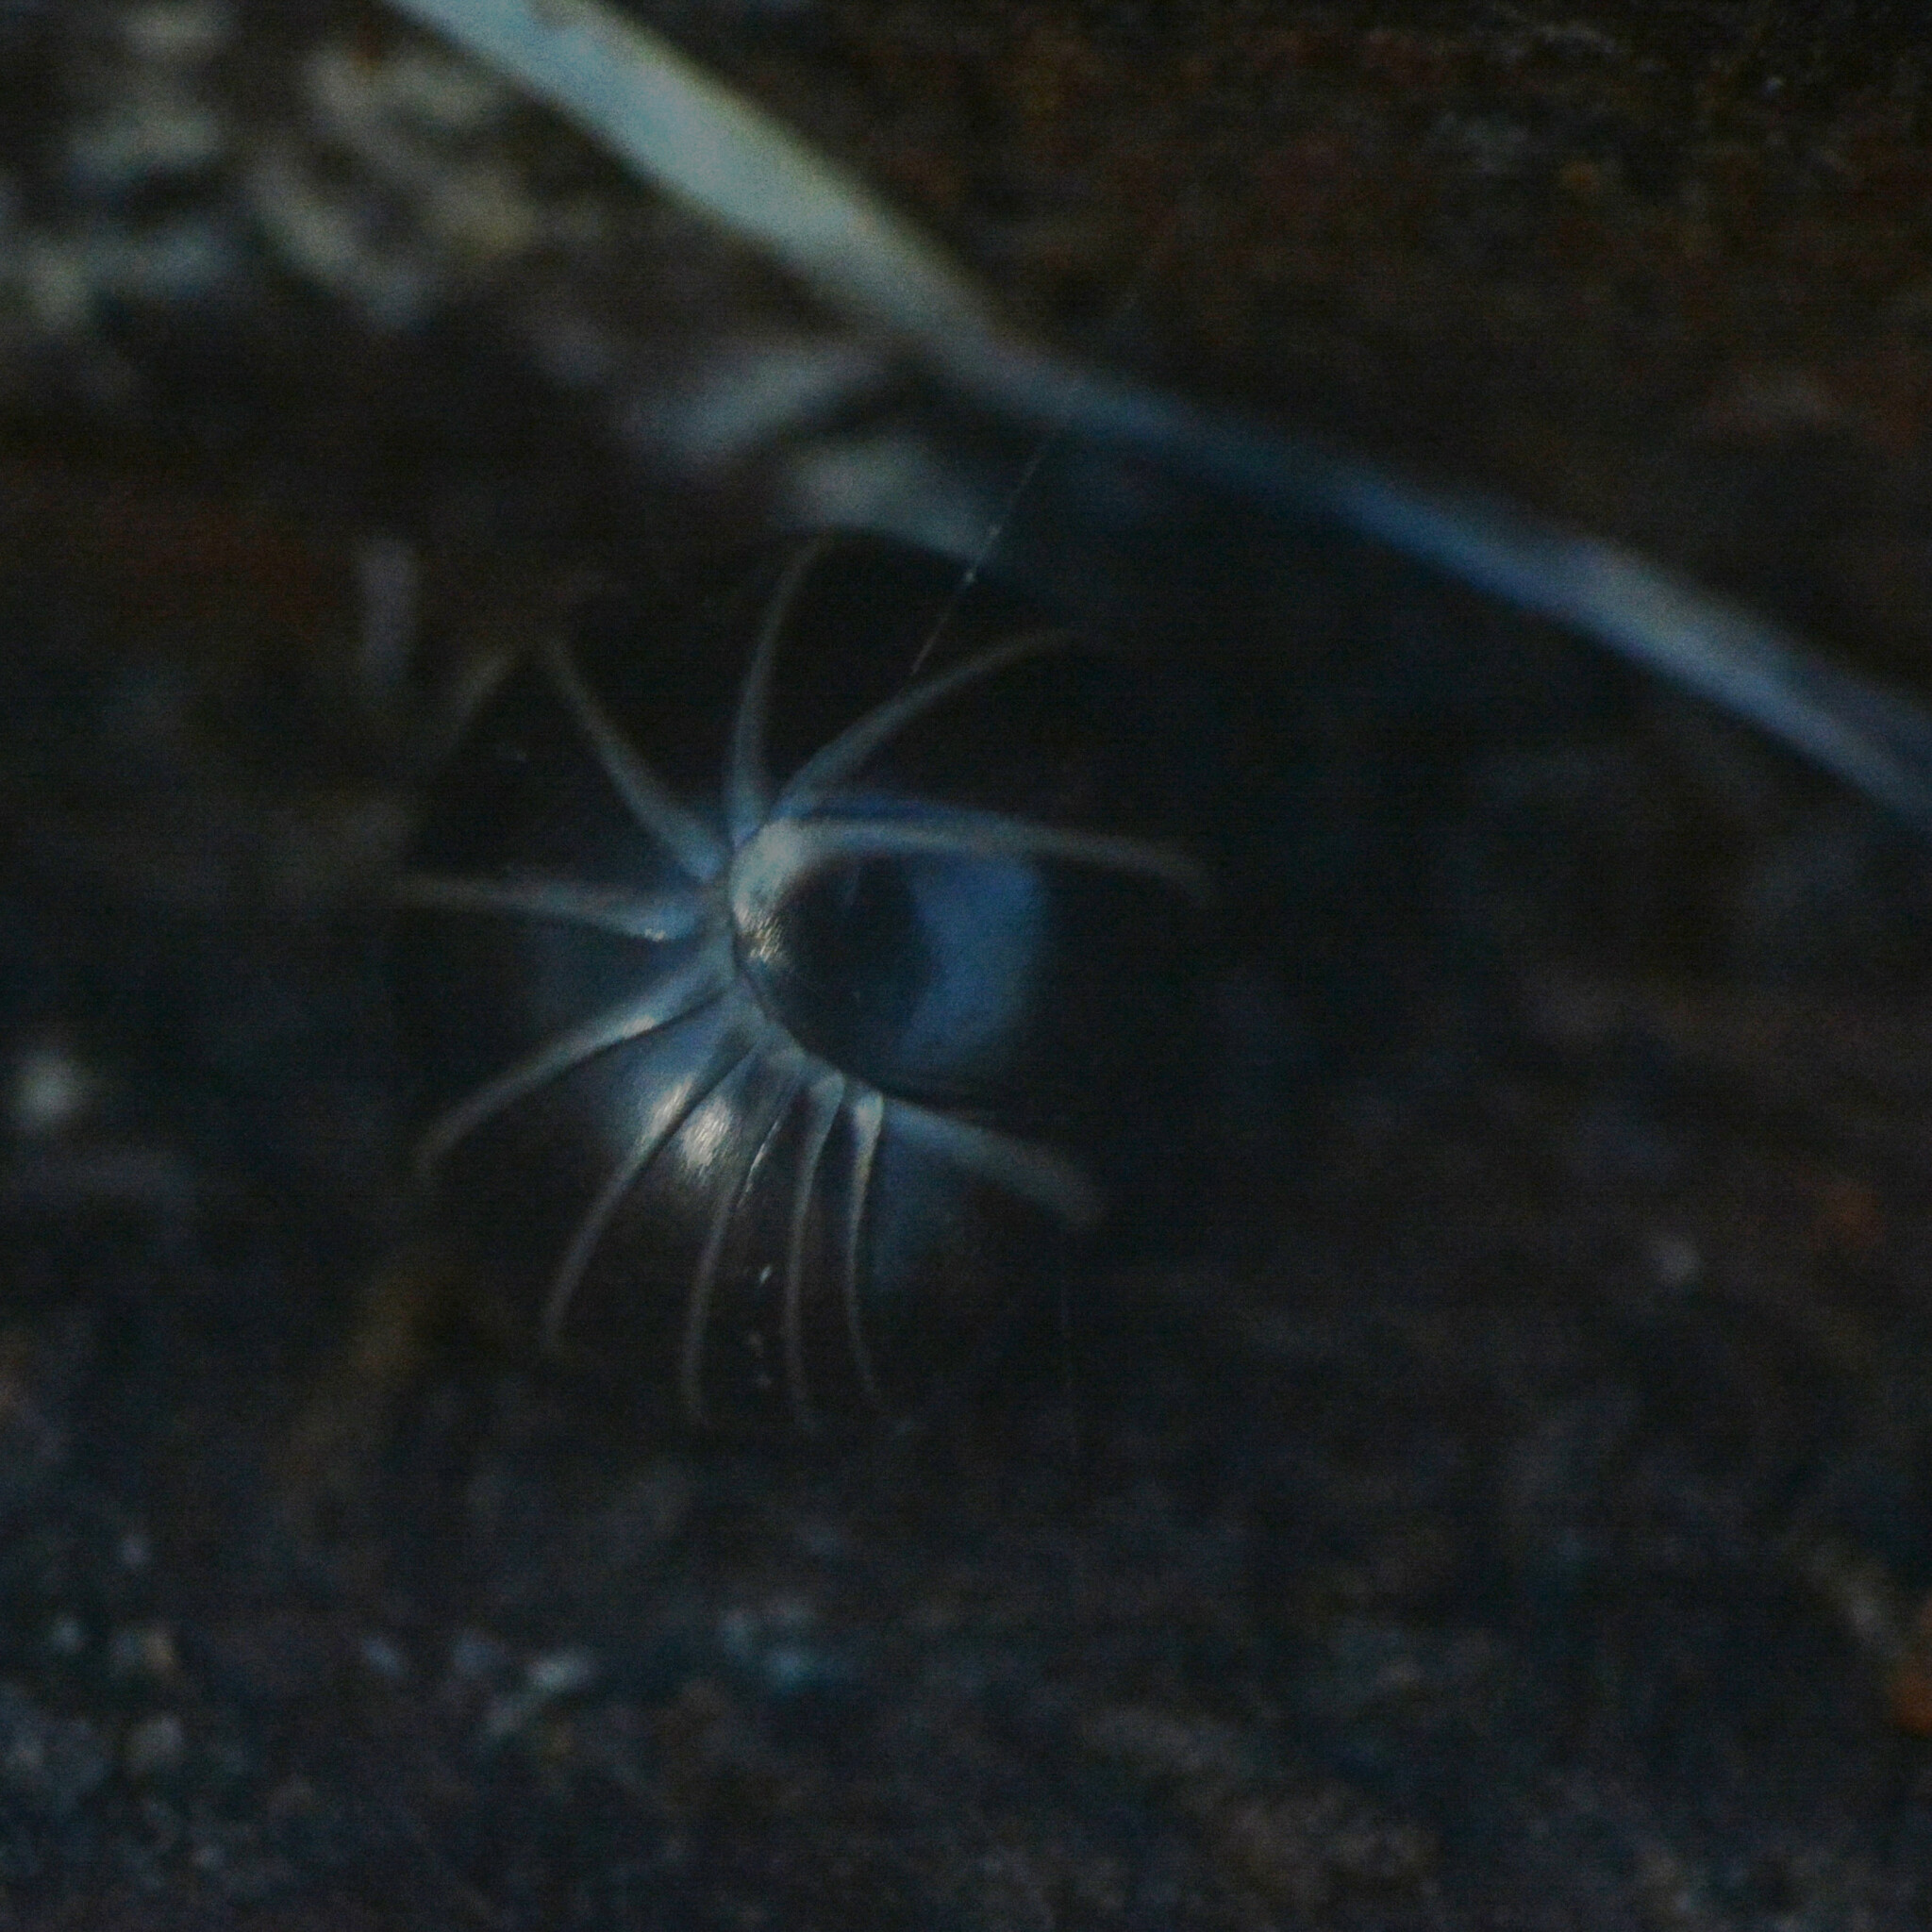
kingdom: Animalia
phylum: Arthropoda
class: Diplopoda
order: Glomerida
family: Glomeridae
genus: Glomeris
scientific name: Glomeris marginata
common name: Bordered pill millipede
